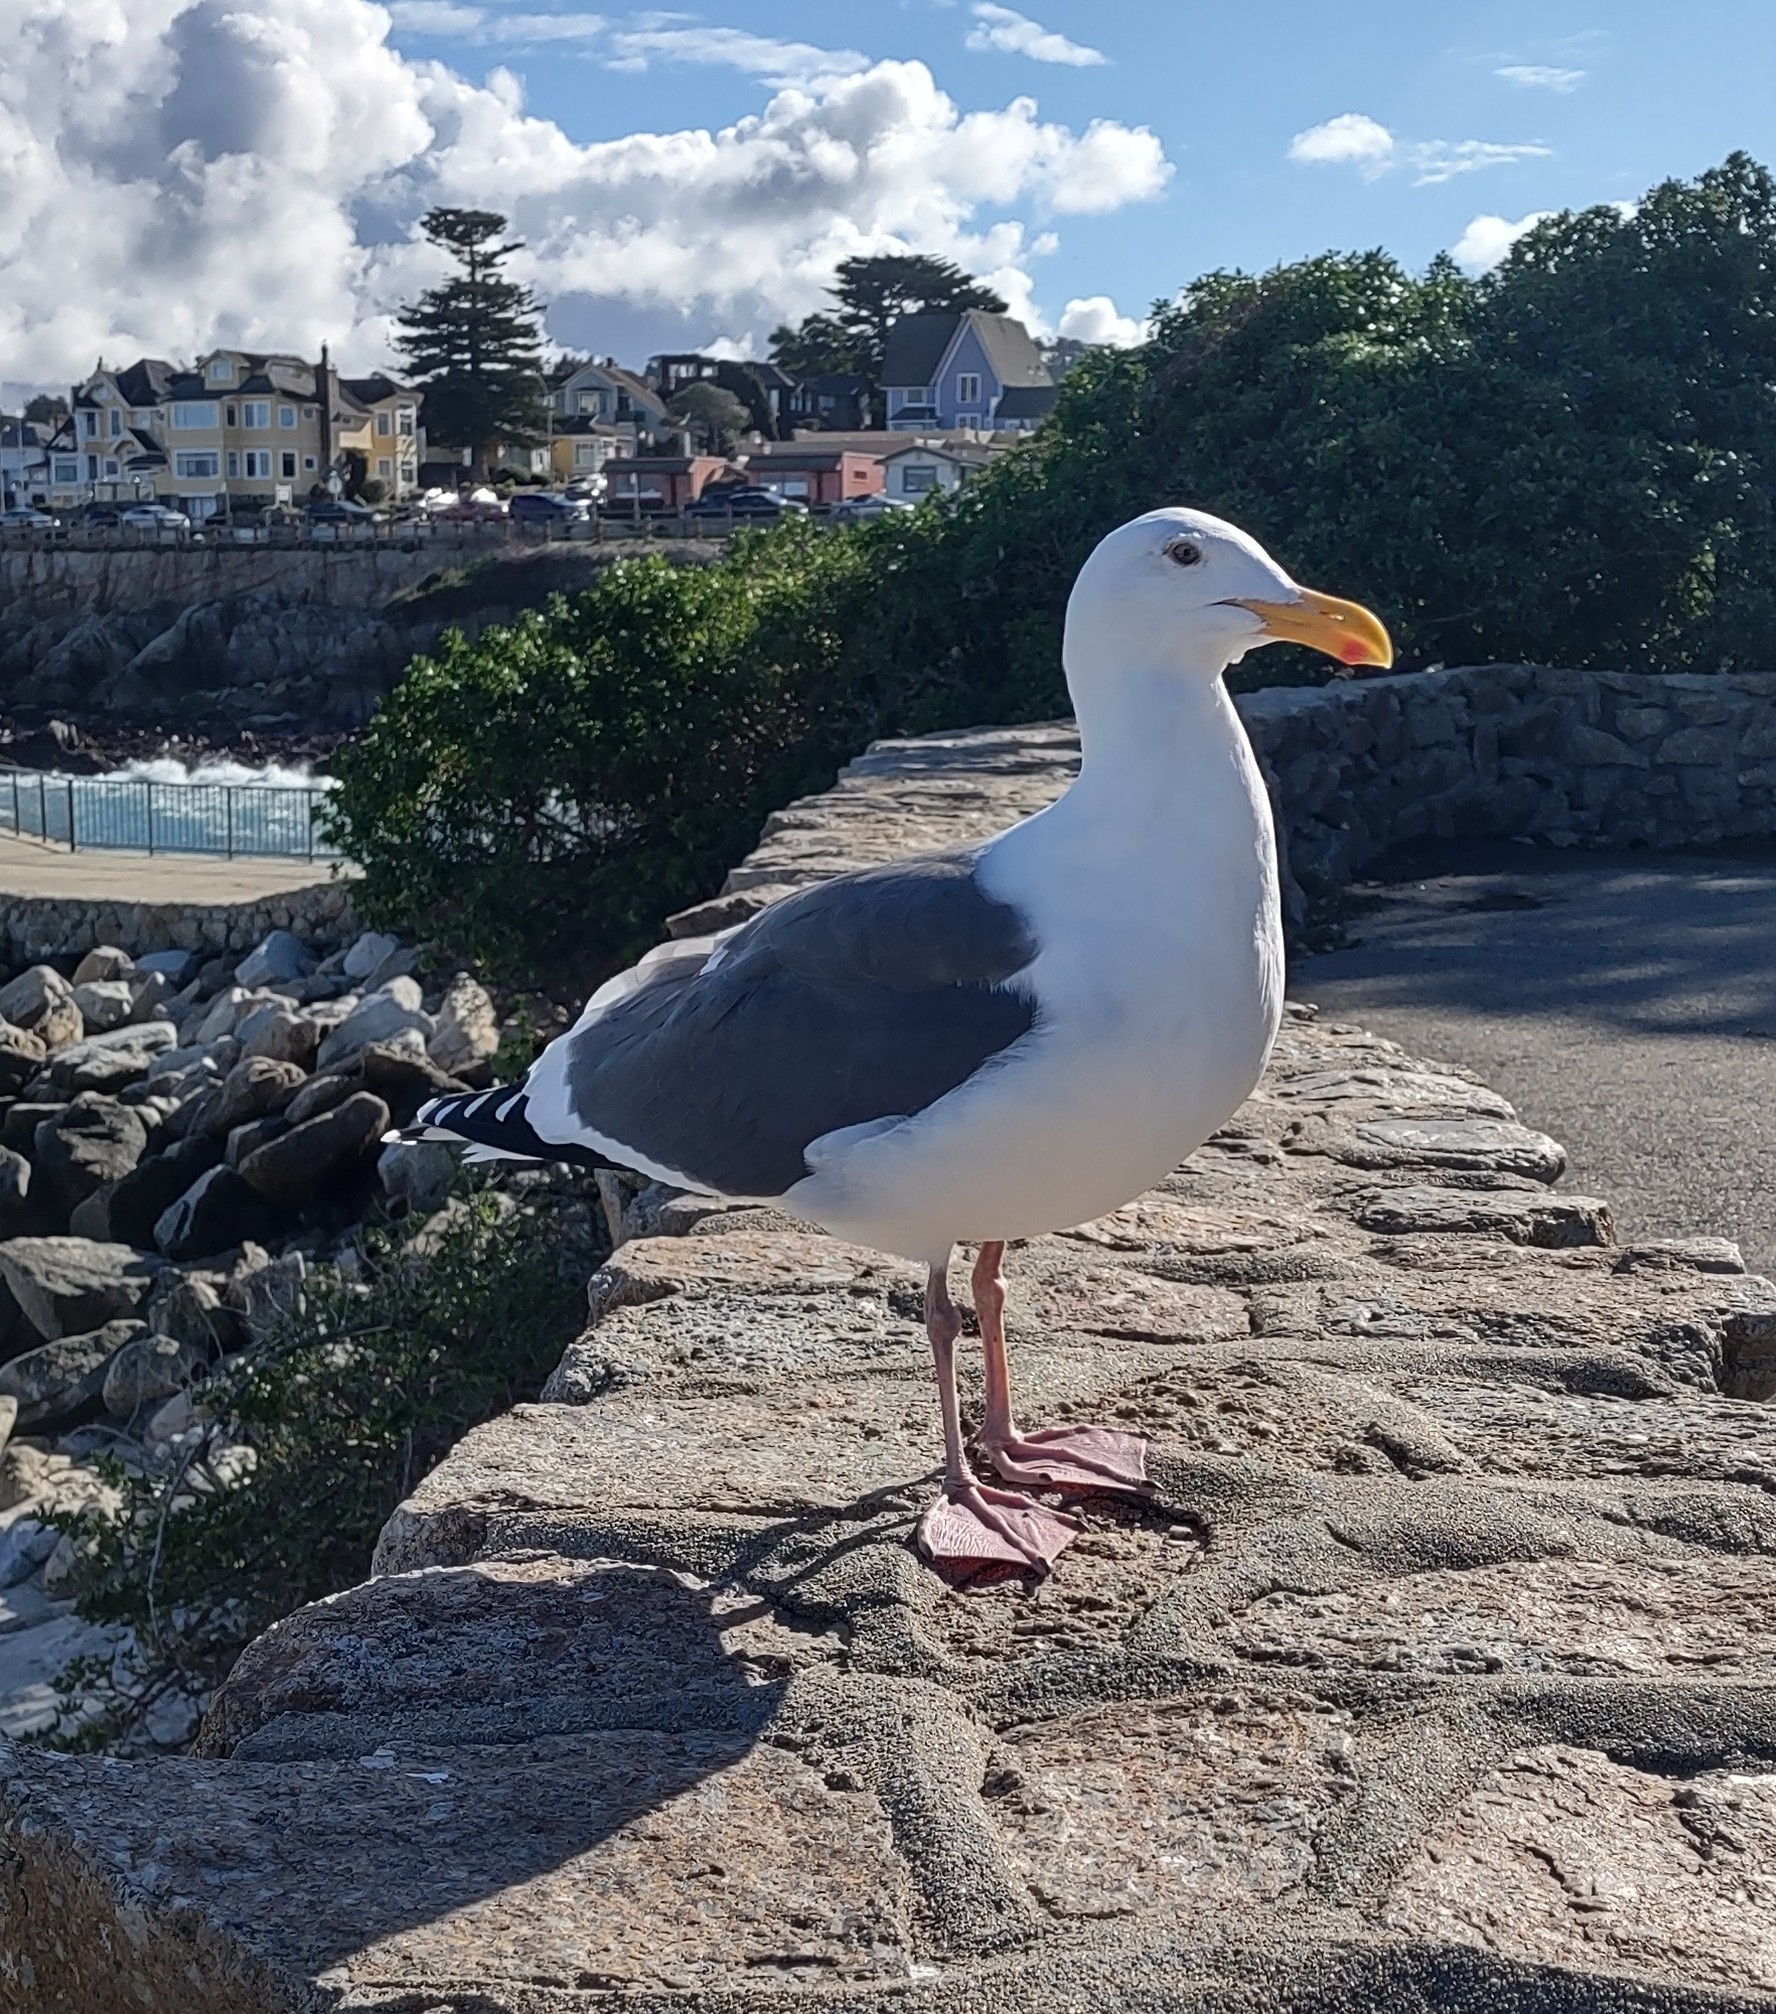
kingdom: Animalia
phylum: Chordata
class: Aves
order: Charadriiformes
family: Laridae
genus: Larus
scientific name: Larus occidentalis
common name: Western gull
